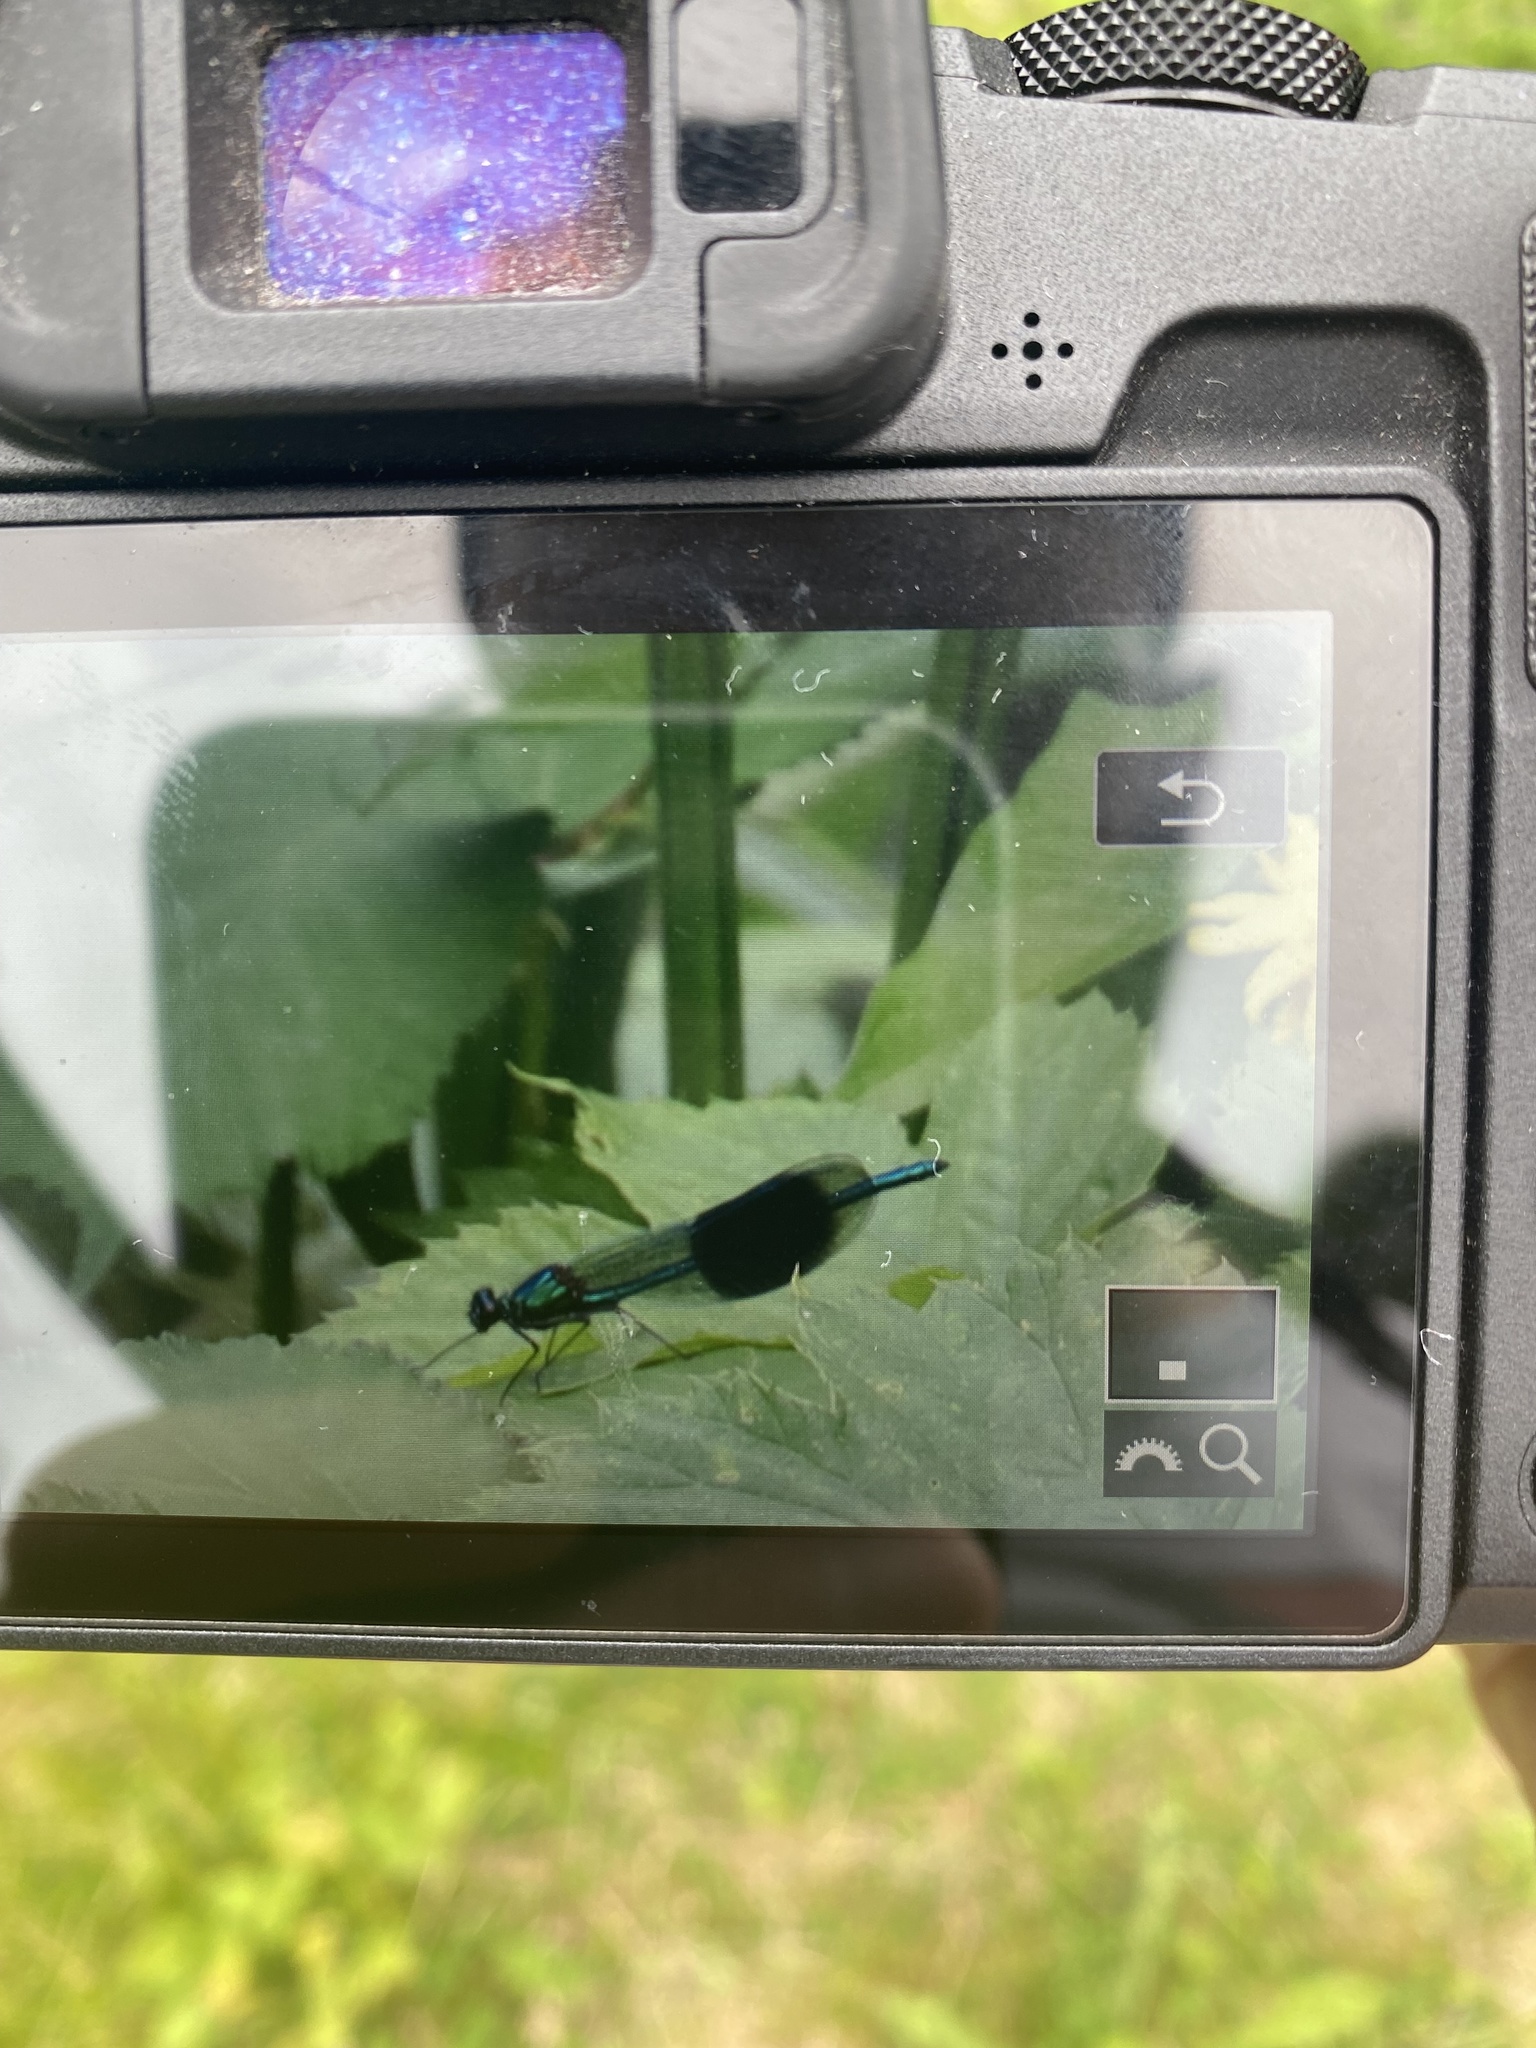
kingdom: Animalia
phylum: Arthropoda
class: Insecta
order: Odonata
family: Calopterygidae
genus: Calopteryx
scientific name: Calopteryx splendens
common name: Banded demoiselle
